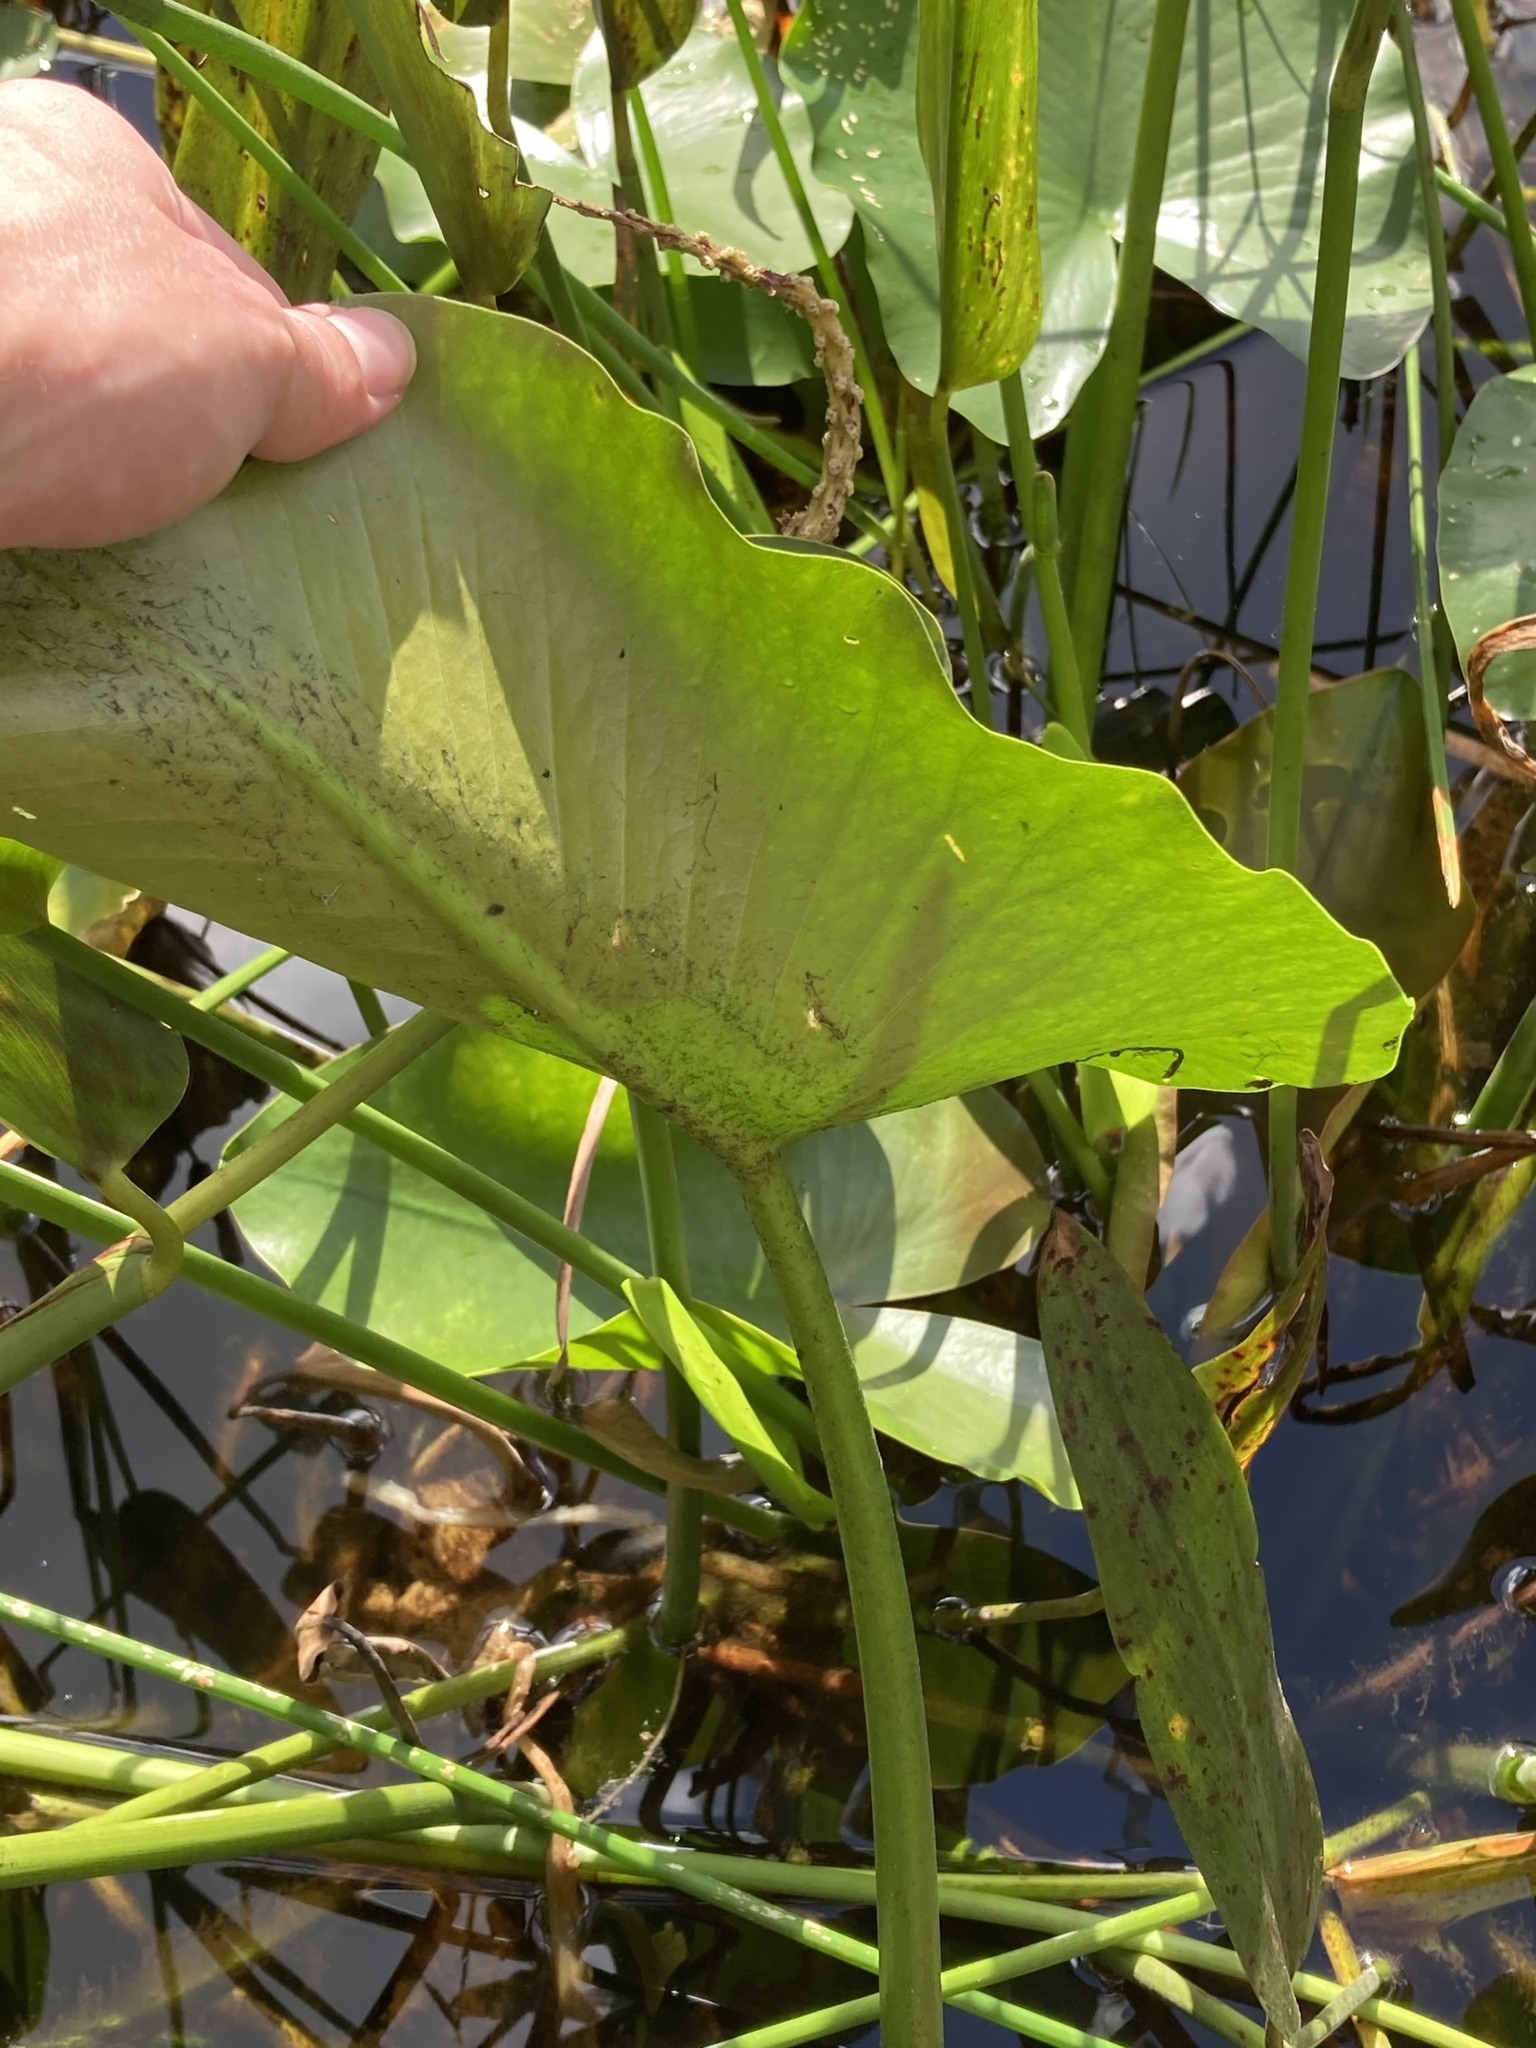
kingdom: Plantae
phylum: Tracheophyta
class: Magnoliopsida
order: Nymphaeales
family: Nymphaeaceae
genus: Nuphar
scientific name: Nuphar advena
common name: Spatter-dock
